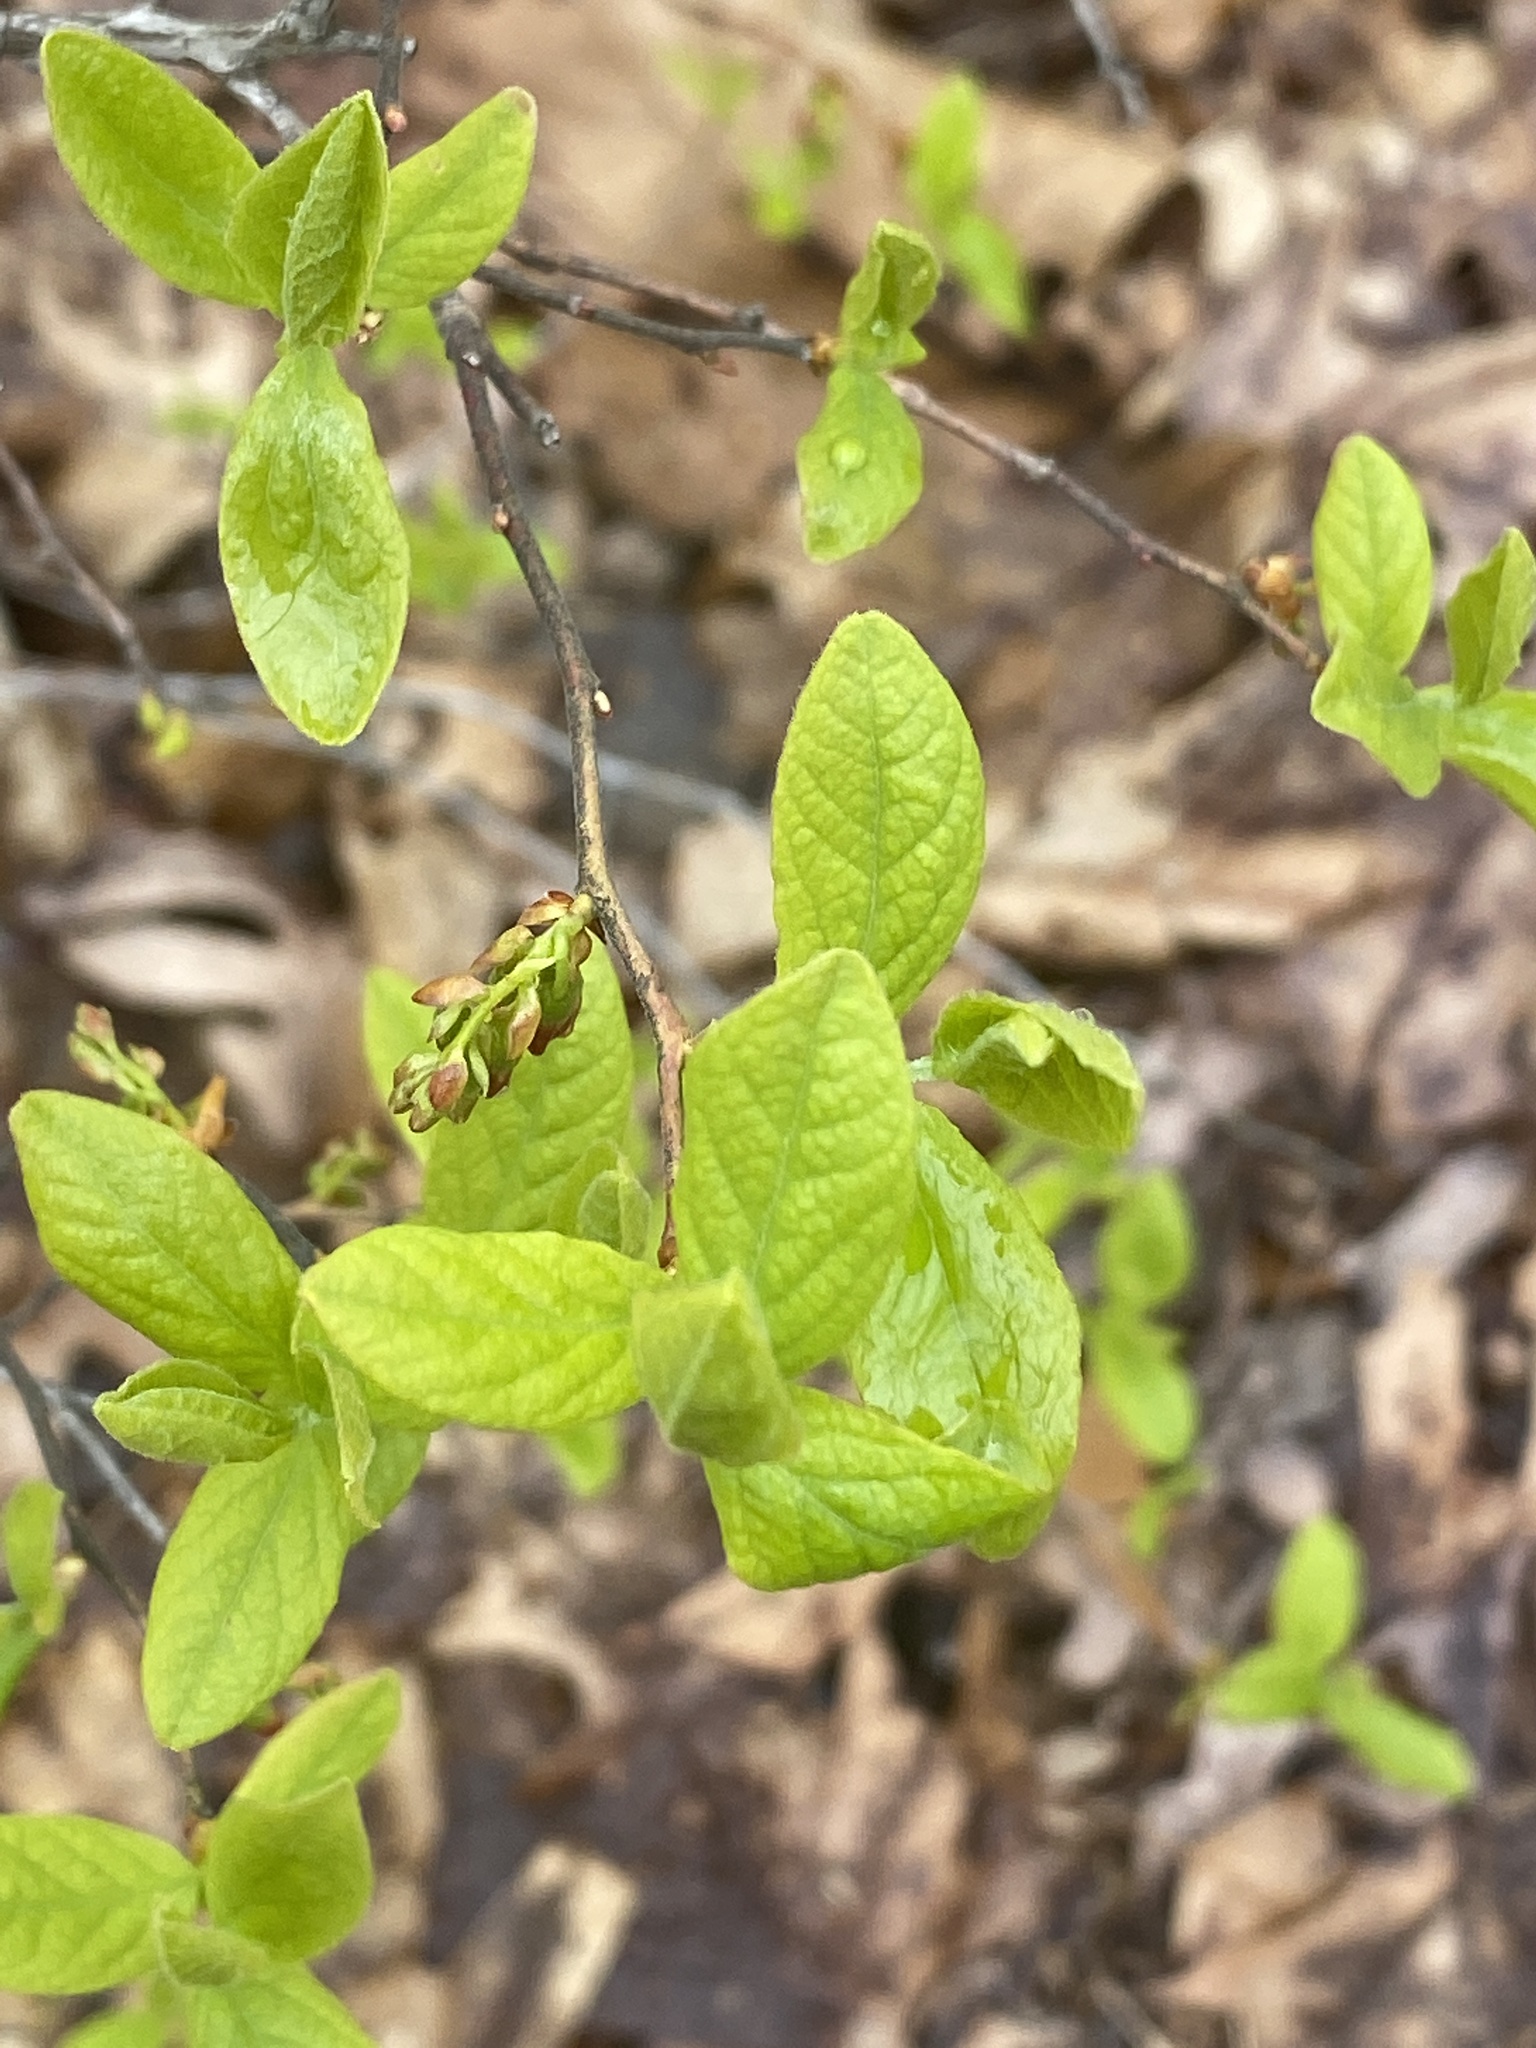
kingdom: Plantae
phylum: Tracheophyta
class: Magnoliopsida
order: Ericales
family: Ericaceae
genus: Gaylussacia
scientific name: Gaylussacia baccata
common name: Black huckleberry
